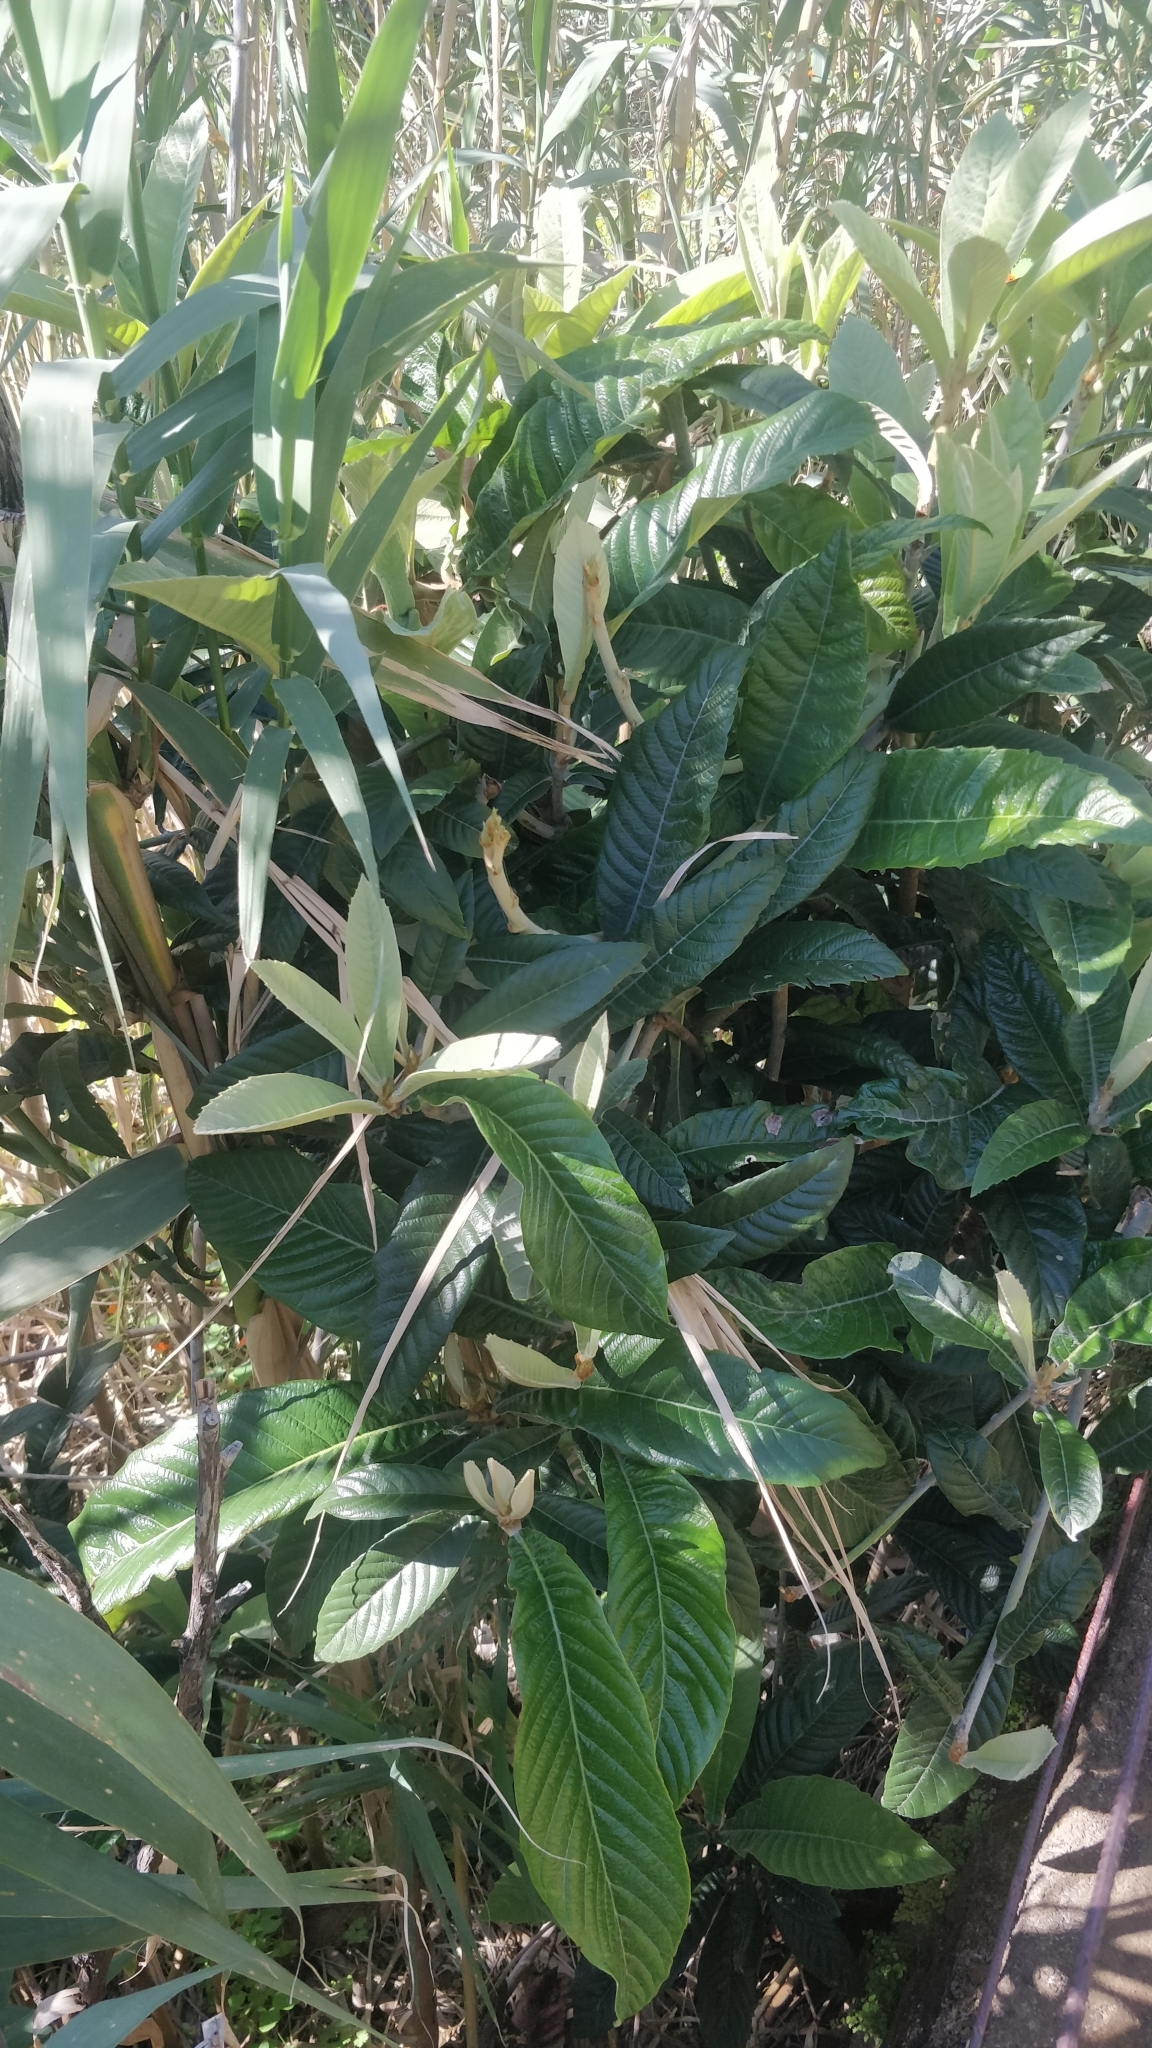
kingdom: Plantae
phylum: Tracheophyta
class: Magnoliopsida
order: Rosales
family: Rosaceae
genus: Rhaphiolepis
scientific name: Rhaphiolepis bibas
